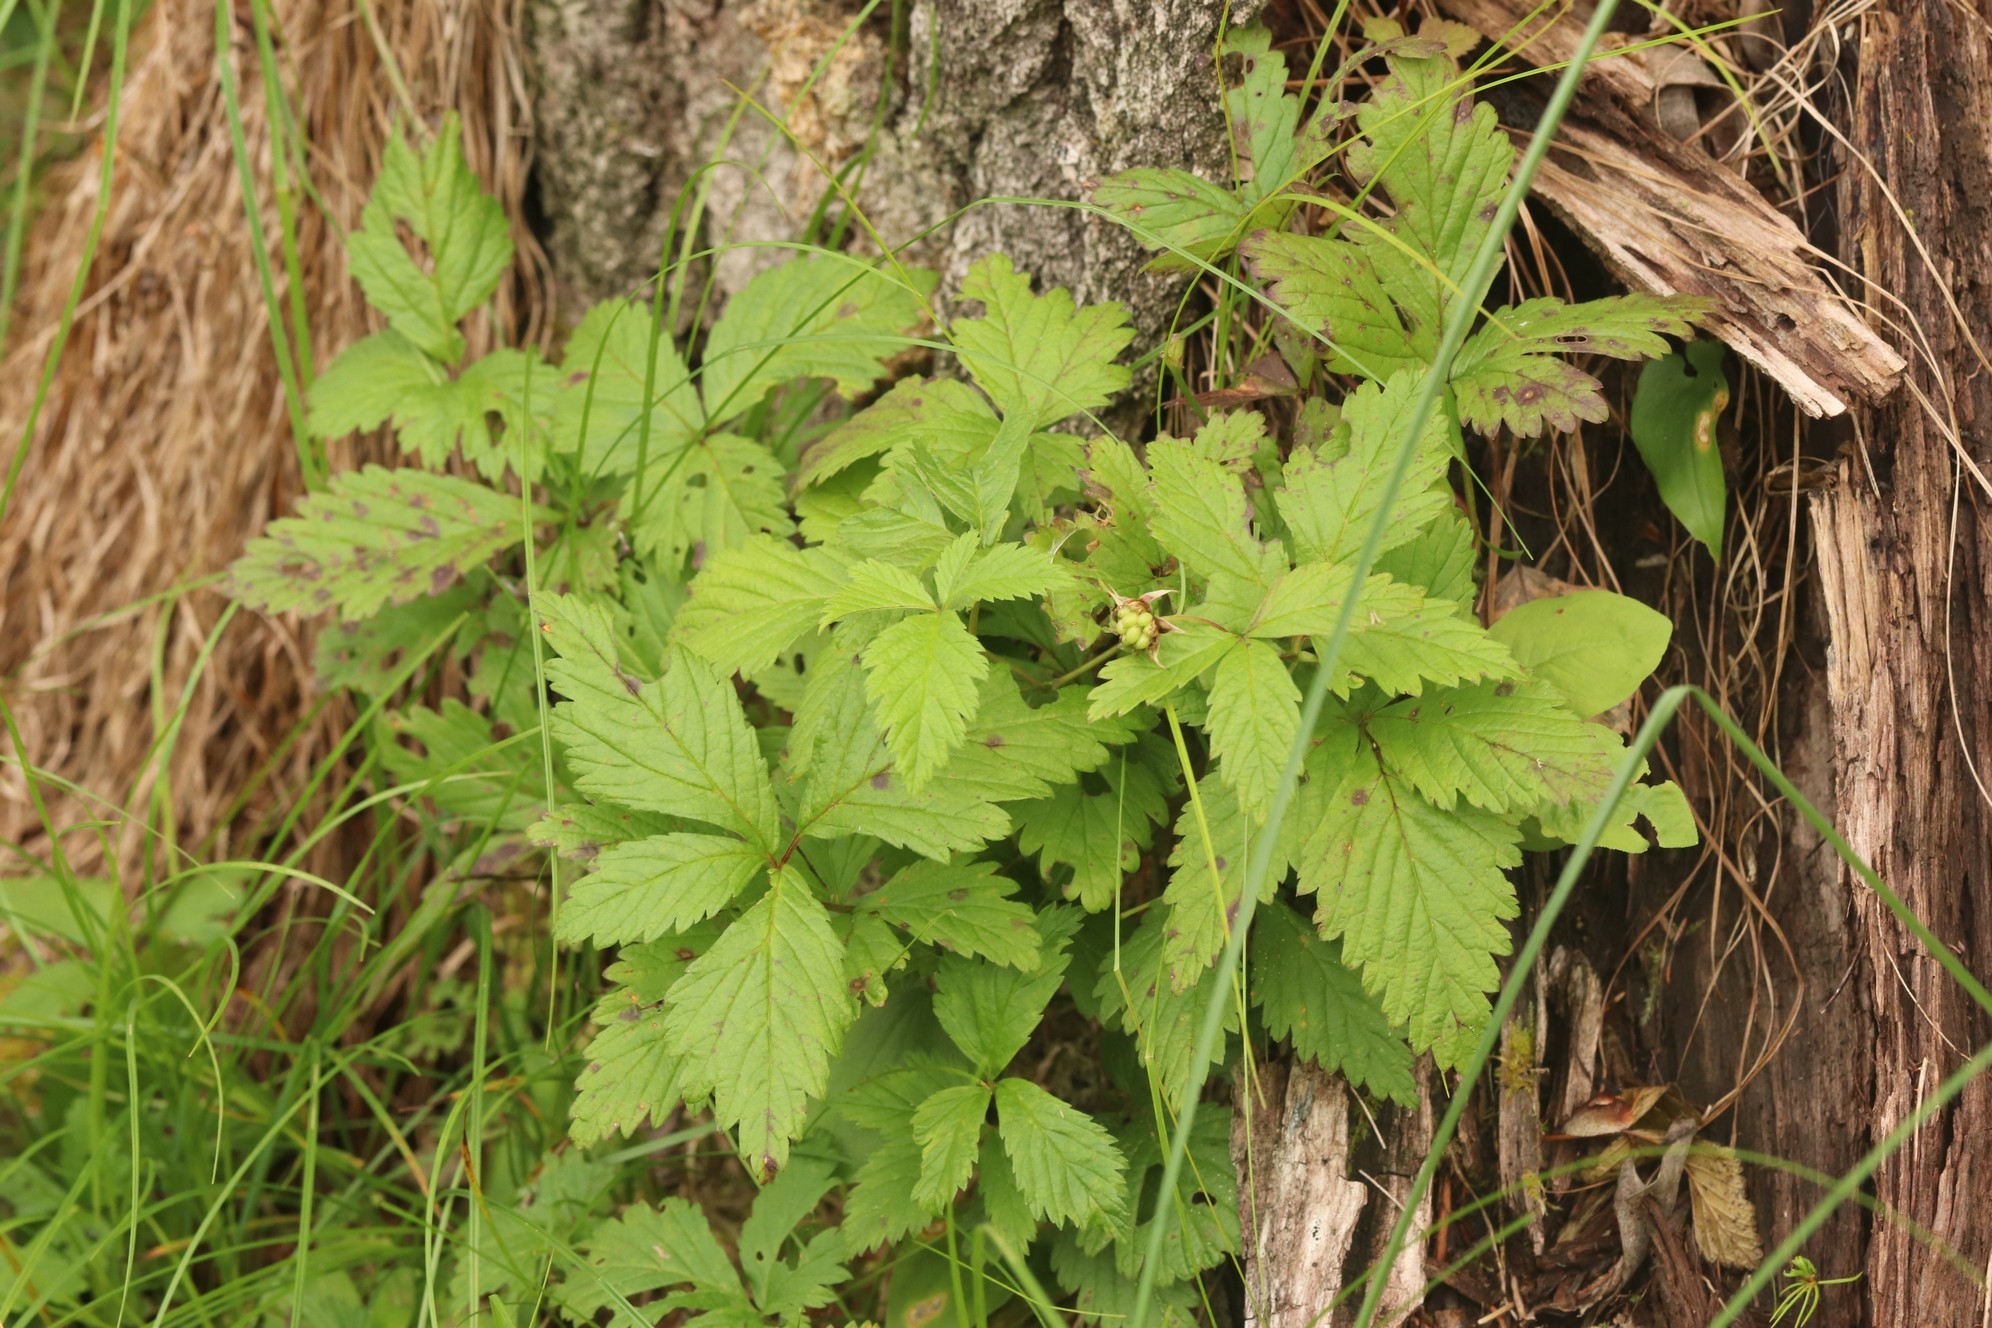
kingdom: Plantae
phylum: Tracheophyta
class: Magnoliopsida
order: Rosales
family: Rosaceae
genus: Rubus
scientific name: Rubus arcticus
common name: Arctic bramble
